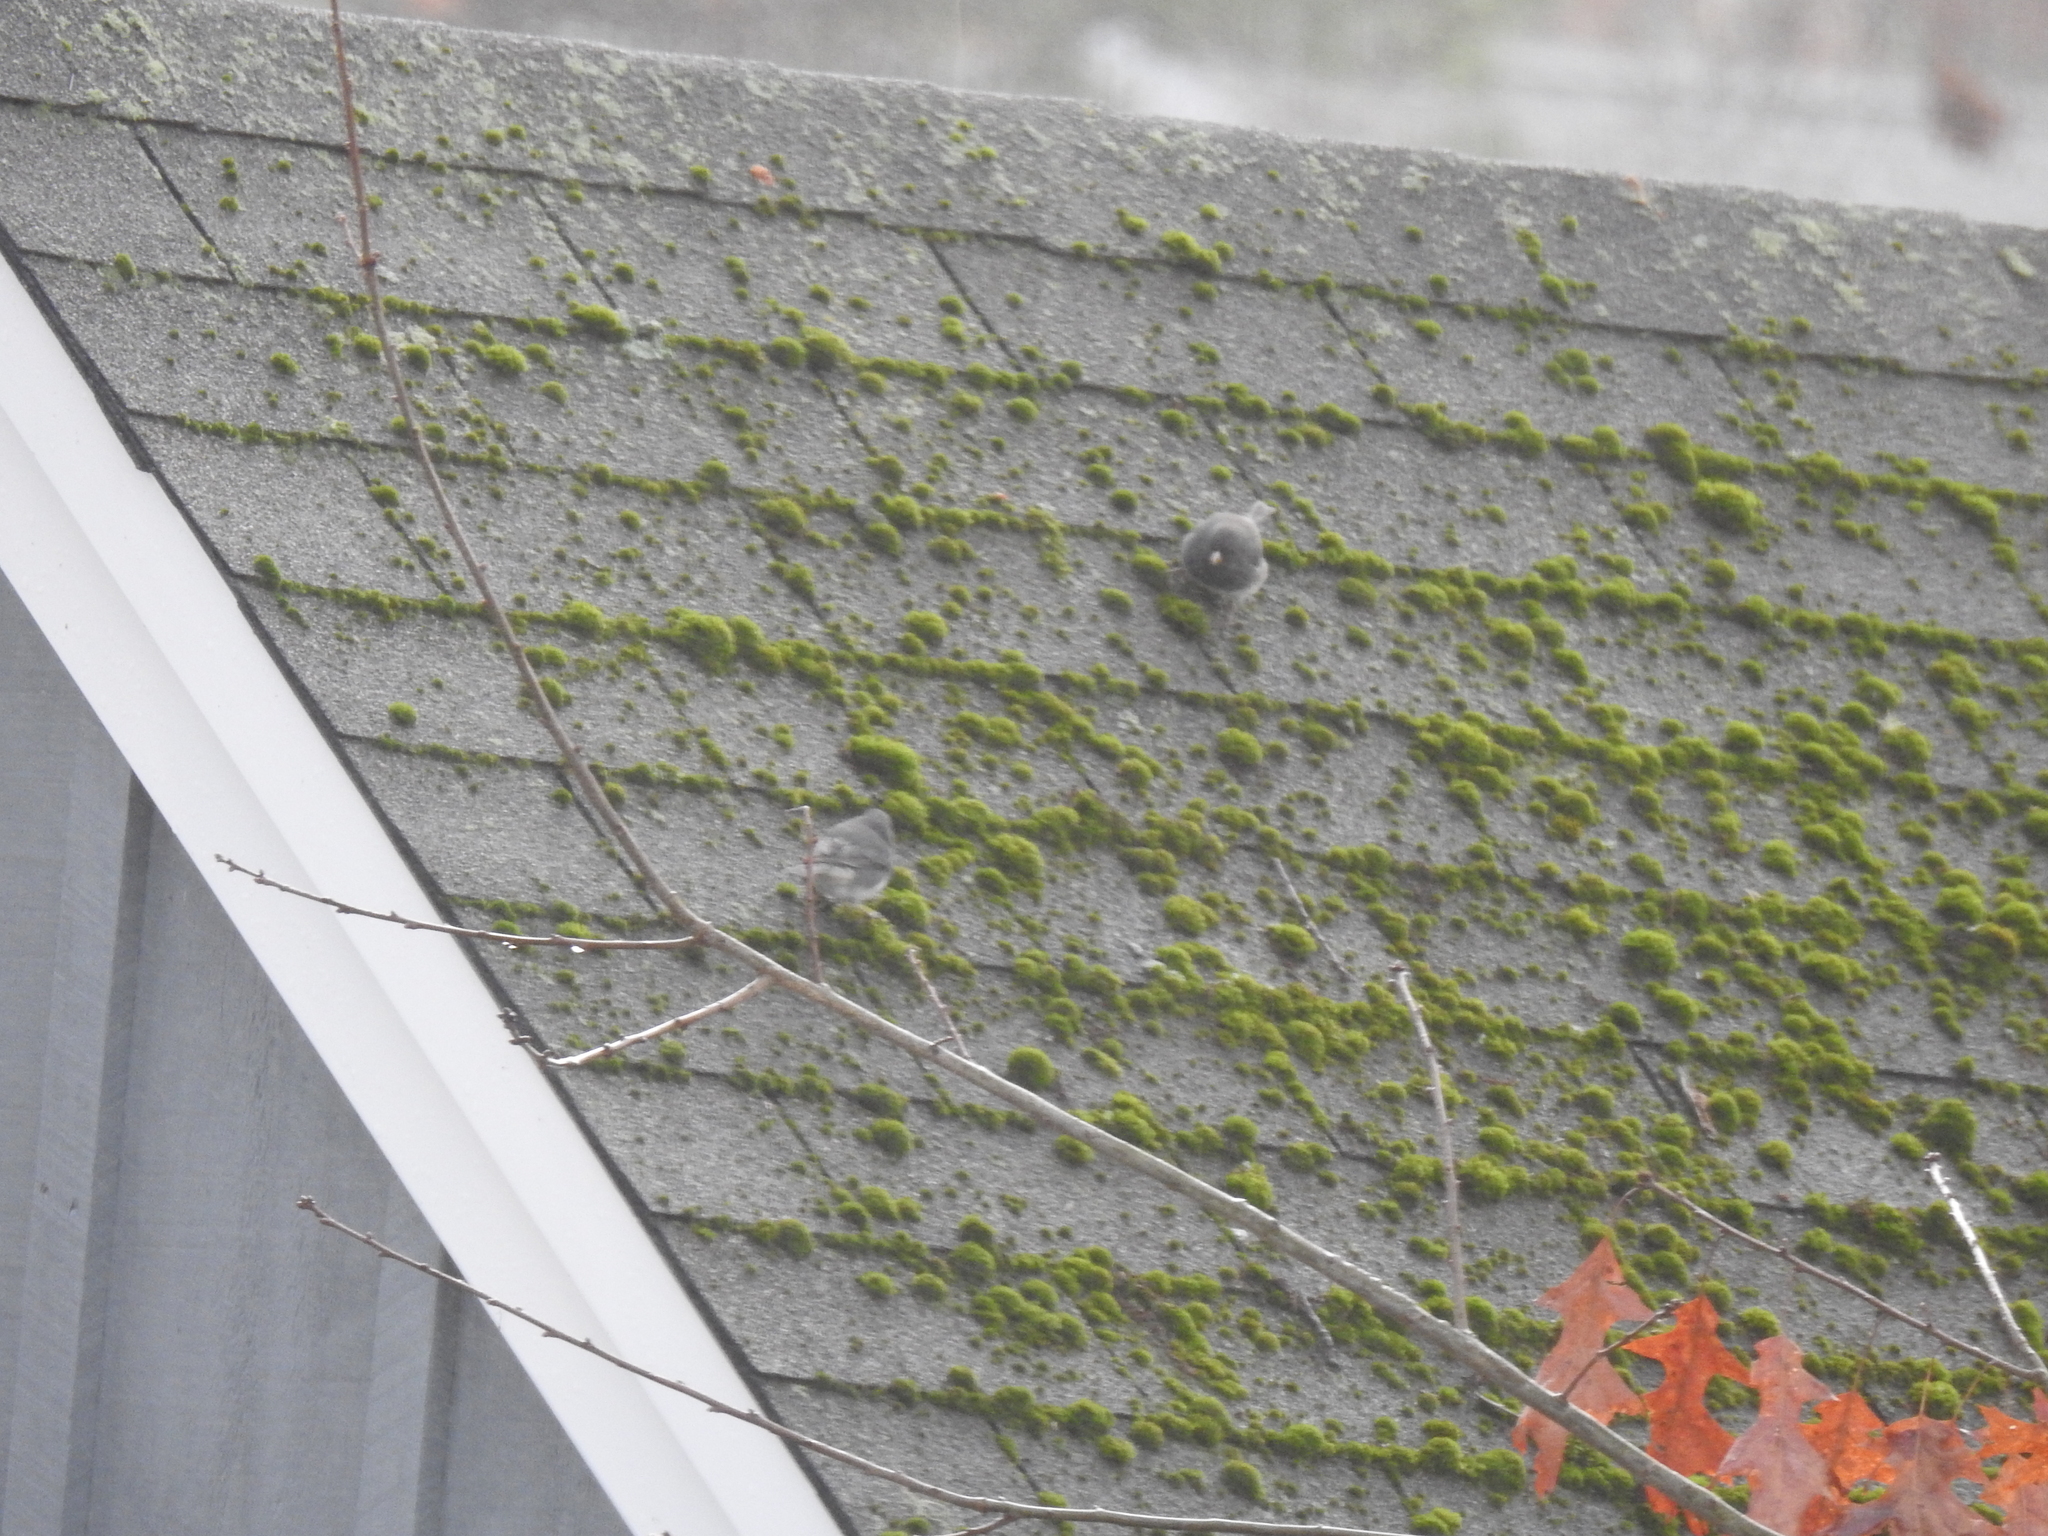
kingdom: Animalia
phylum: Chordata
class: Aves
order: Passeriformes
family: Passerellidae
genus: Junco
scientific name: Junco hyemalis
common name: Dark-eyed junco
